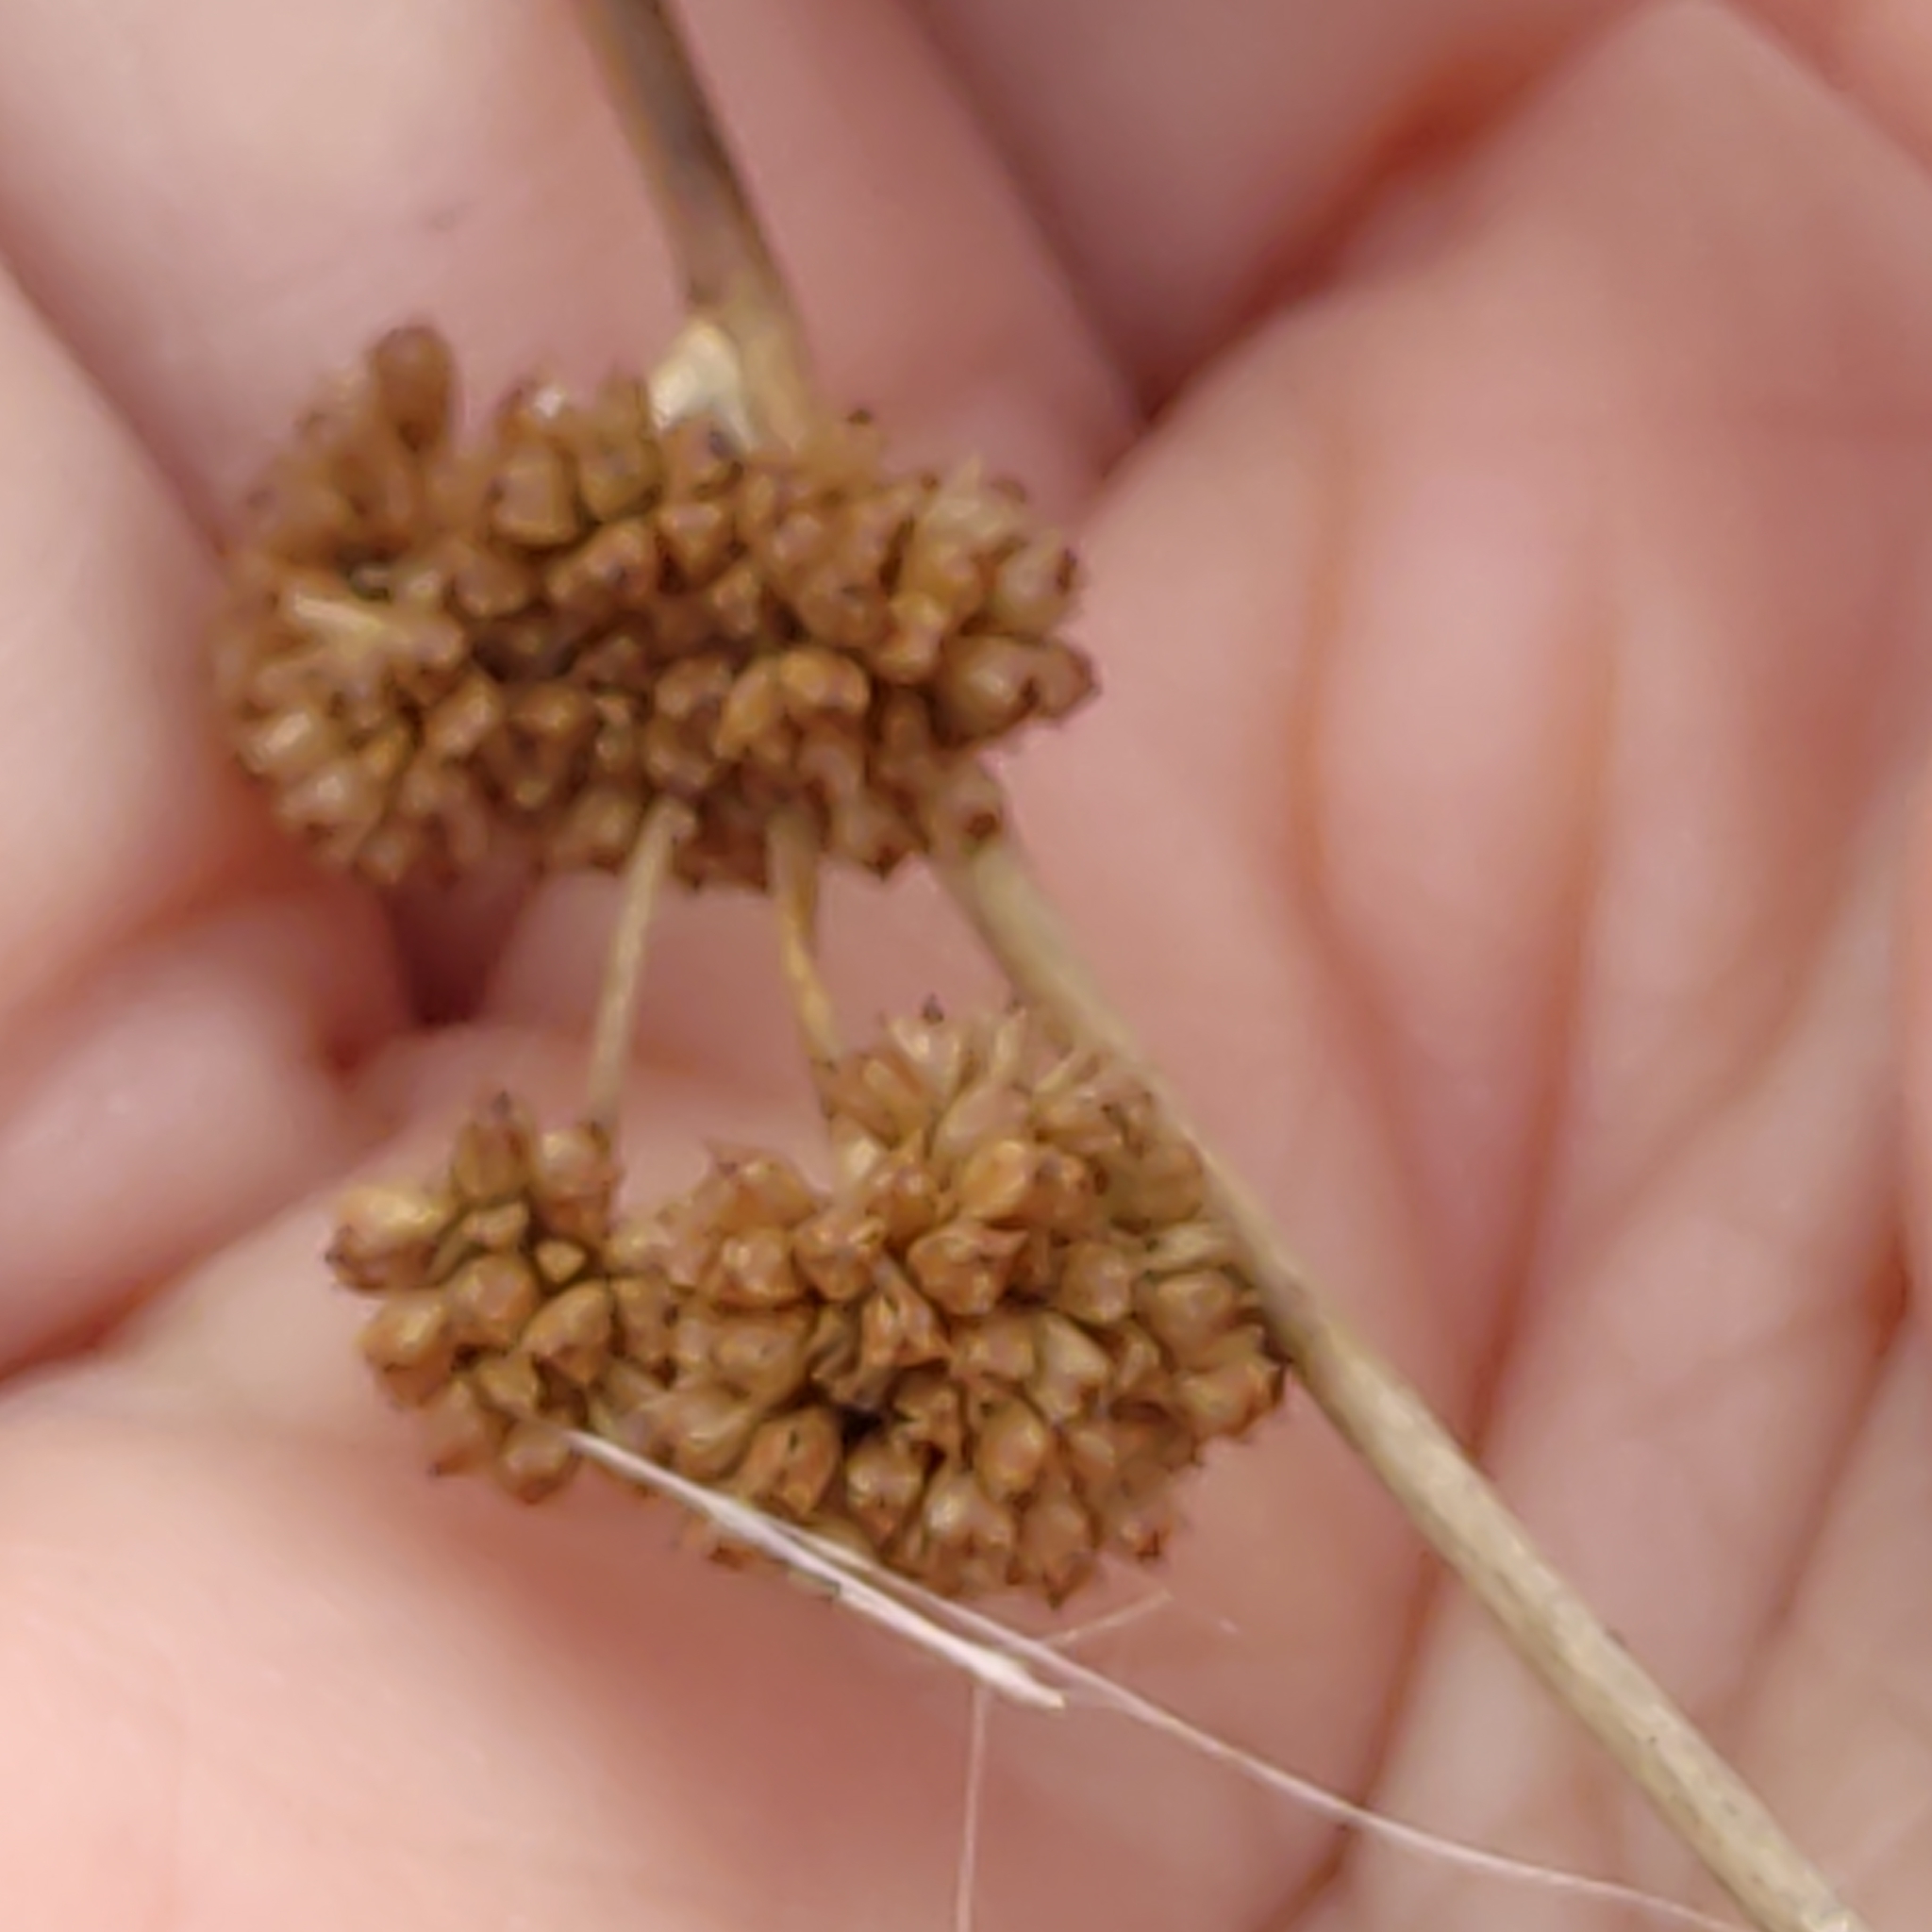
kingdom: Plantae
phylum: Tracheophyta
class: Liliopsida
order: Poales
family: Cyperaceae
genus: Ficinia
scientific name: Ficinia nodosa
